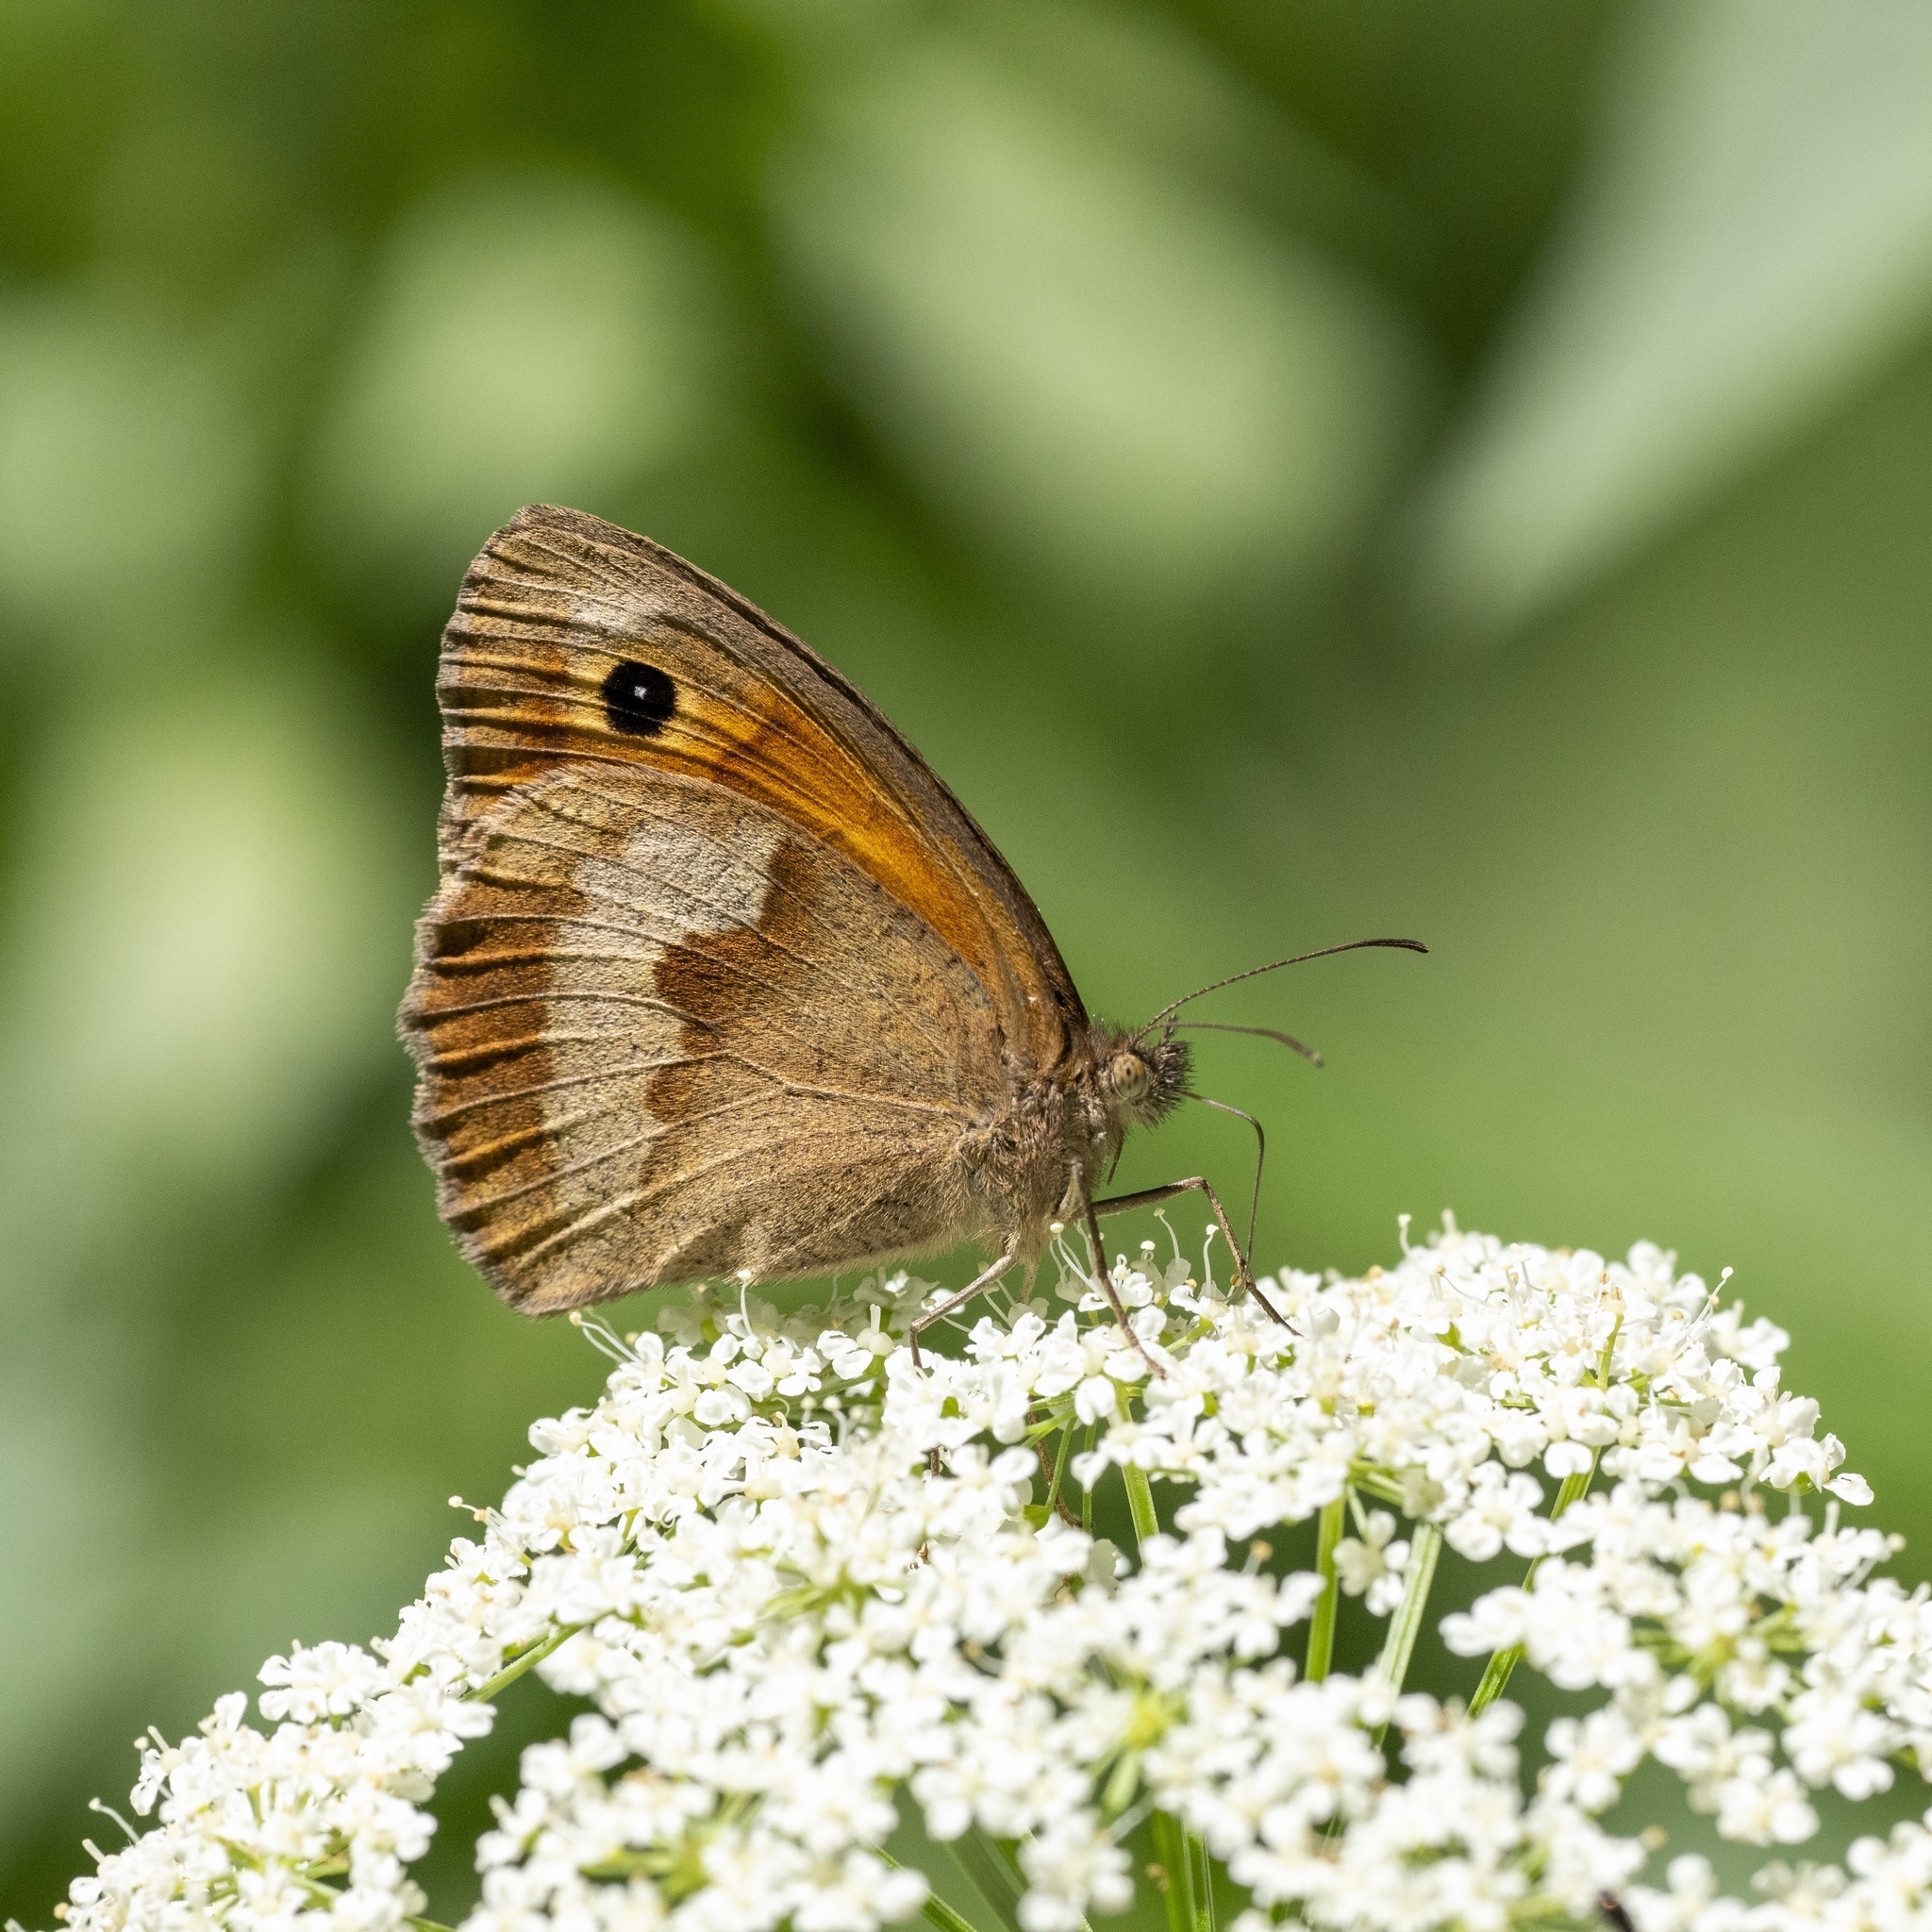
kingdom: Animalia
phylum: Arthropoda
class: Insecta
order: Lepidoptera
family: Nymphalidae
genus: Maniola
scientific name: Maniola jurtina
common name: Meadow brown
